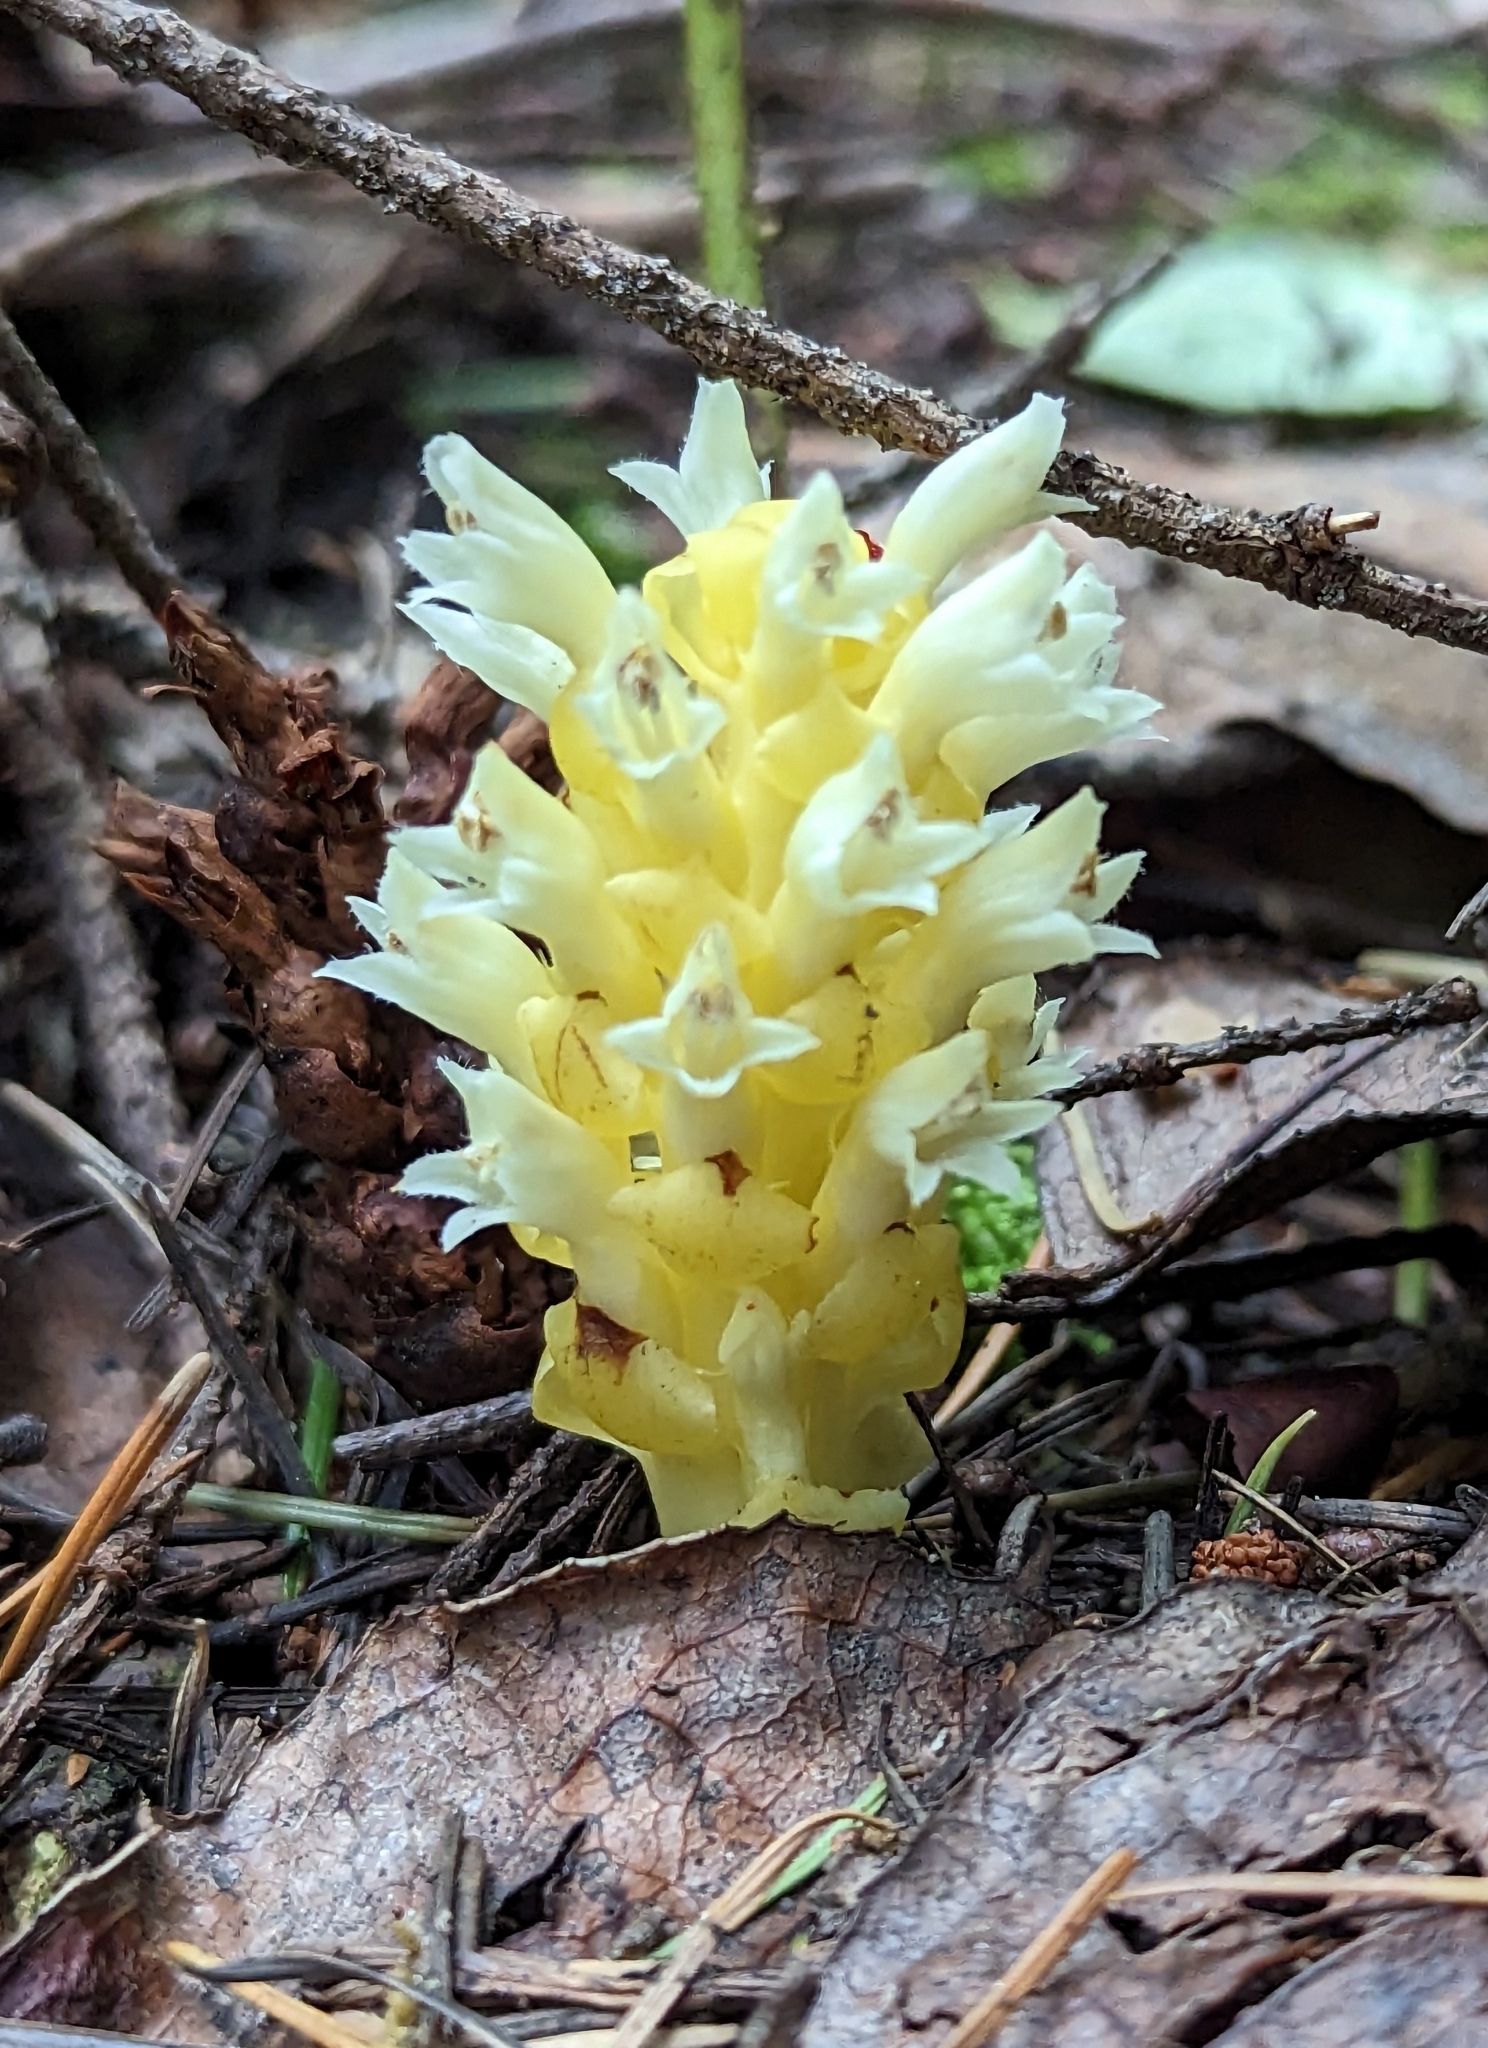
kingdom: Plantae
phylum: Tracheophyta
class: Magnoliopsida
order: Lamiales
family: Orobanchaceae
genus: Kopsiopsis
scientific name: Kopsiopsis hookeri
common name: Hooker's groundcone
